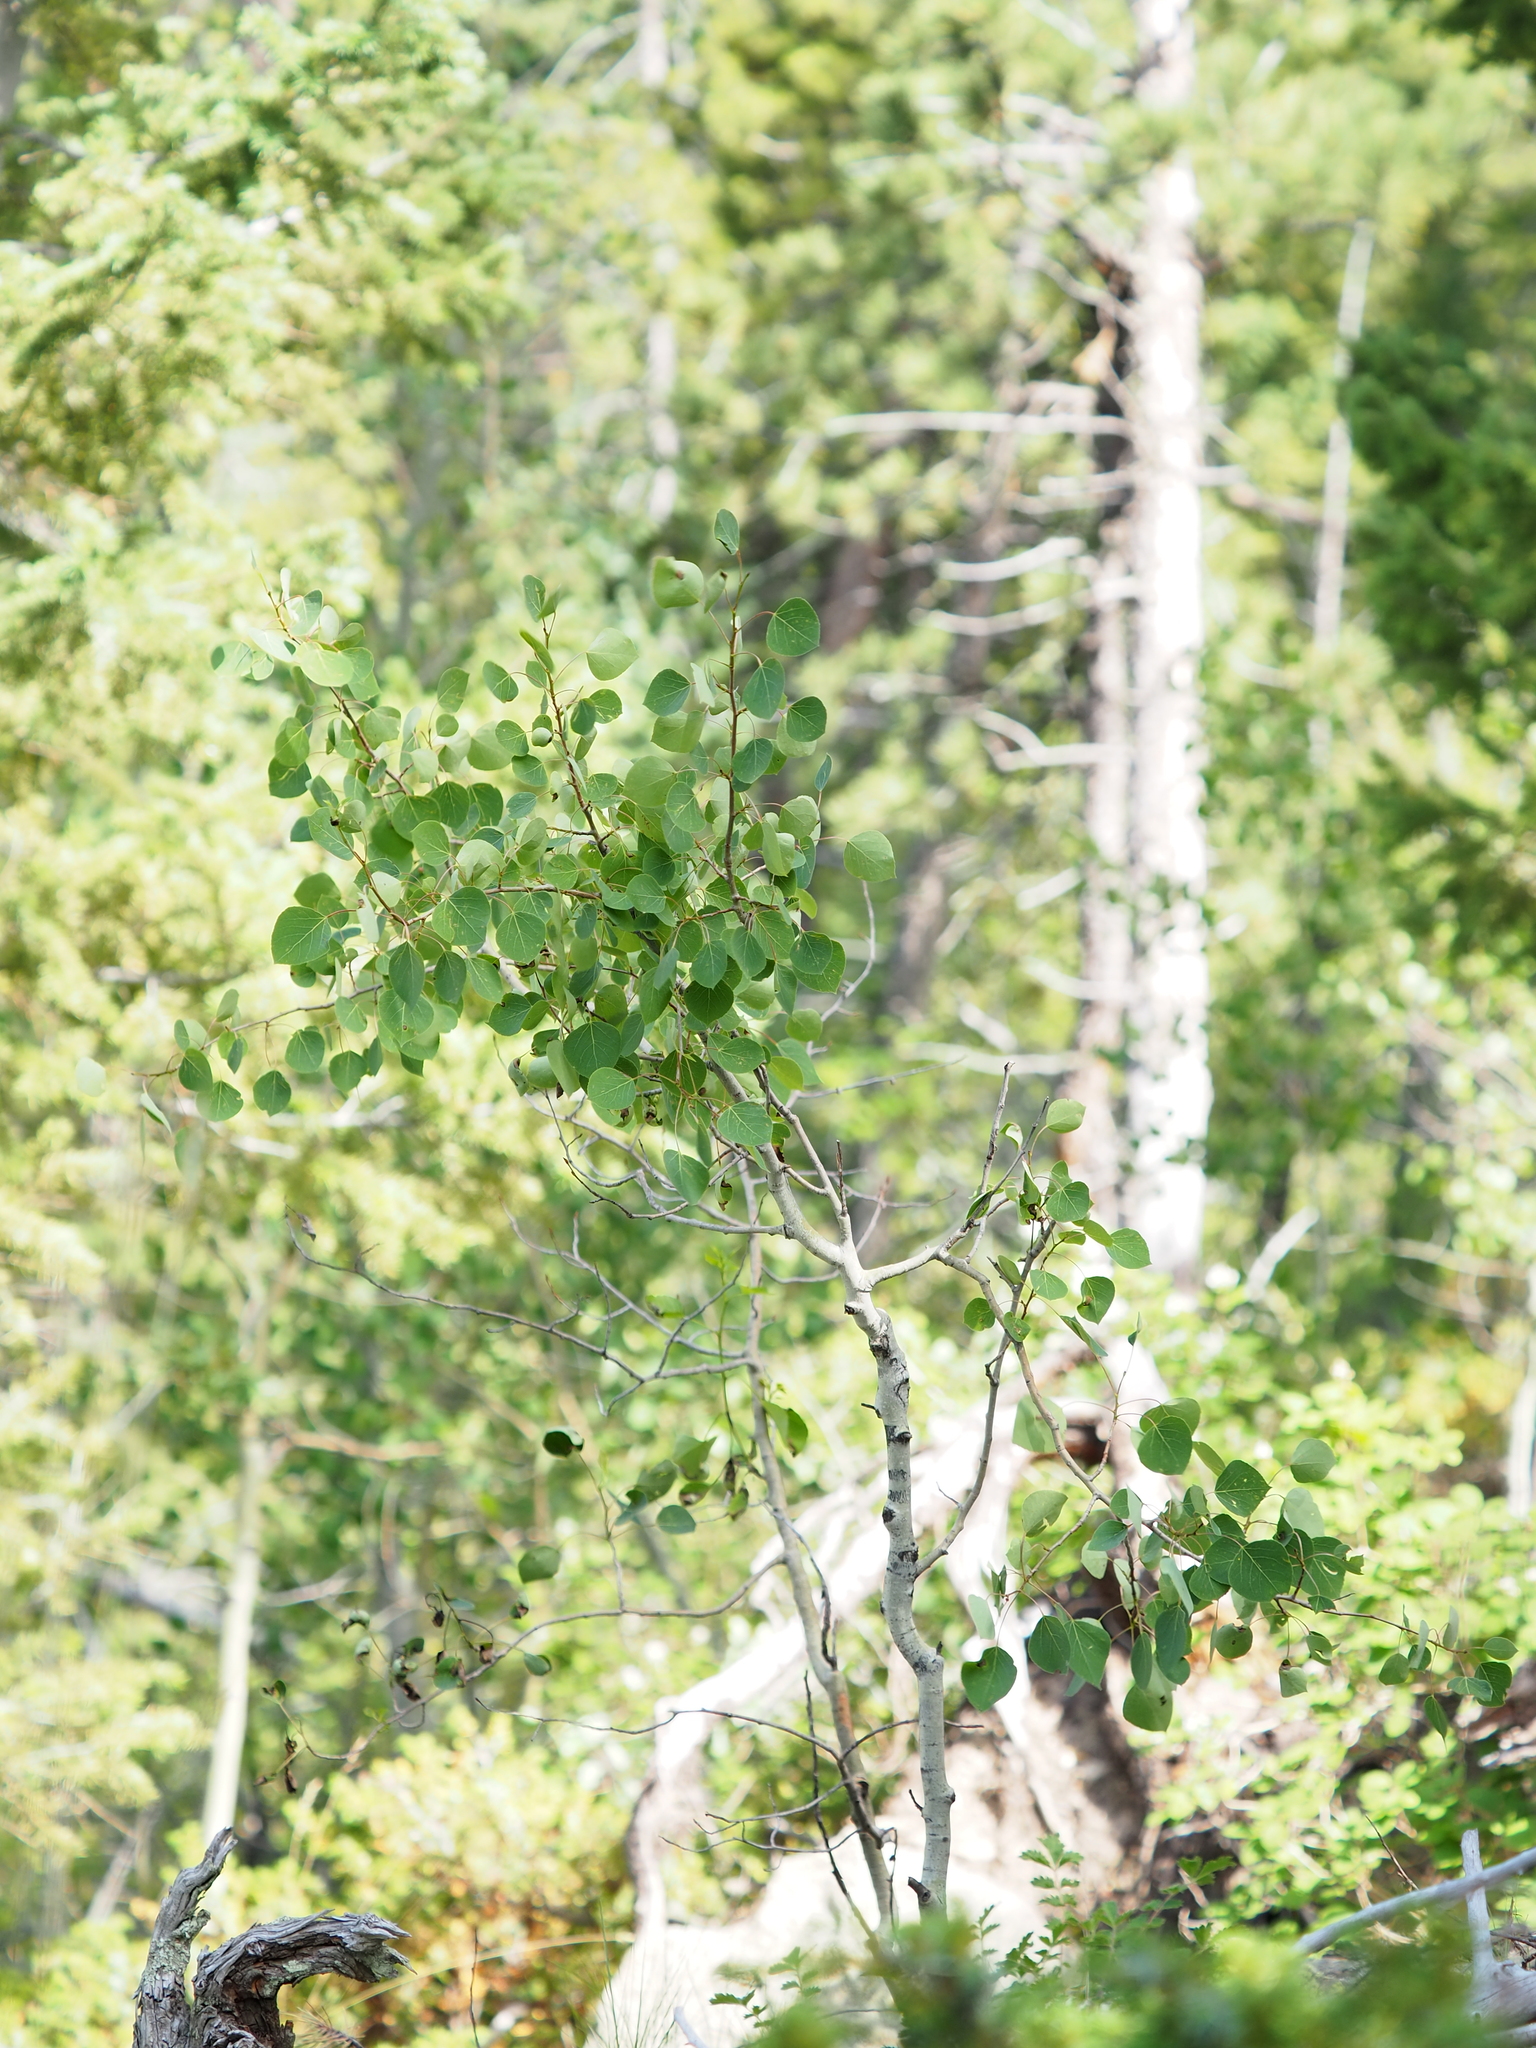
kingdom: Plantae
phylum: Tracheophyta
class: Magnoliopsida
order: Malpighiales
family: Salicaceae
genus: Populus
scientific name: Populus tremuloides
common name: Quaking aspen
